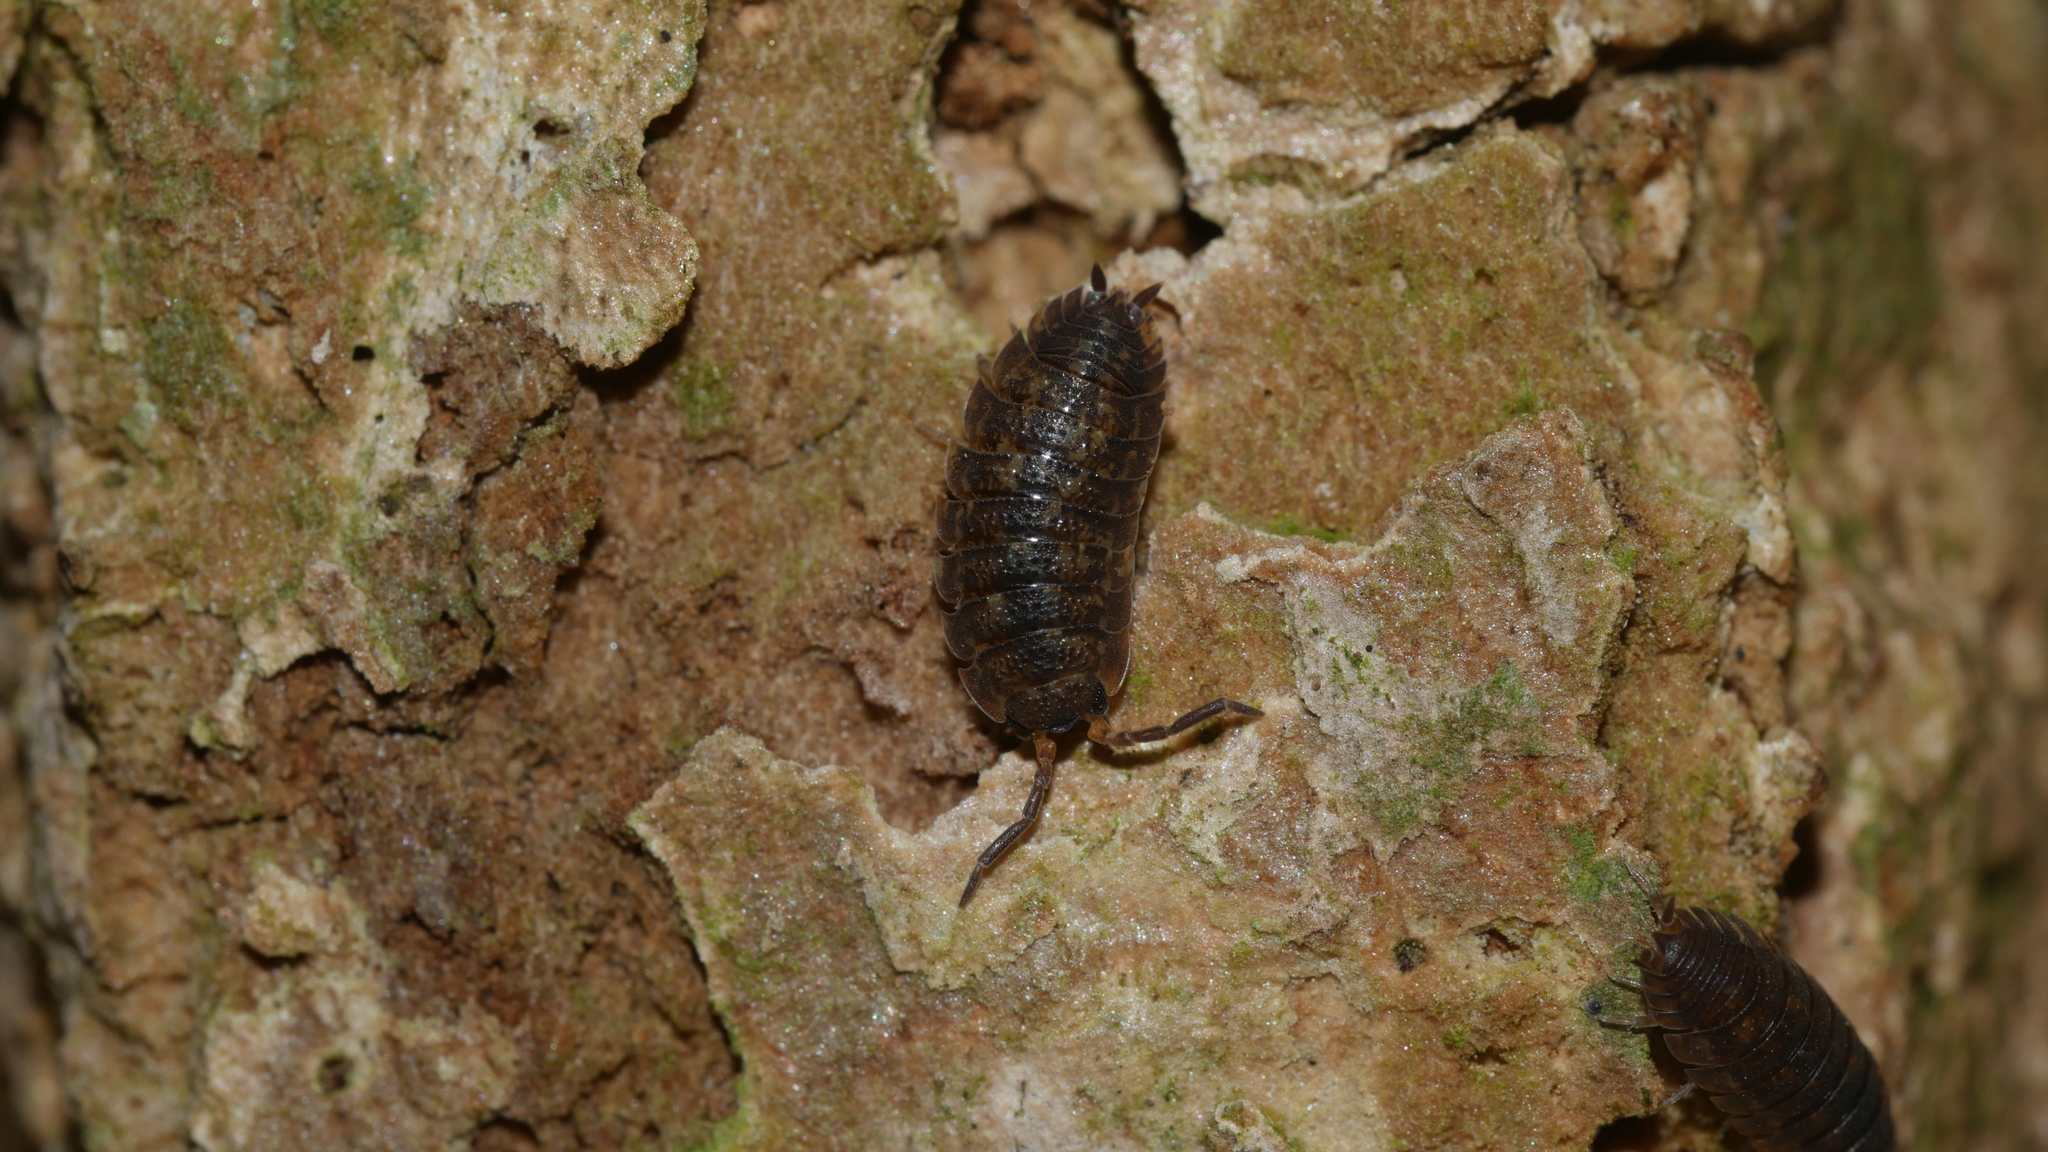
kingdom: Animalia
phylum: Arthropoda
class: Malacostraca
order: Isopoda
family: Porcellionidae
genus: Porcellio
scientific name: Porcellio scaber
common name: Common rough woodlouse
